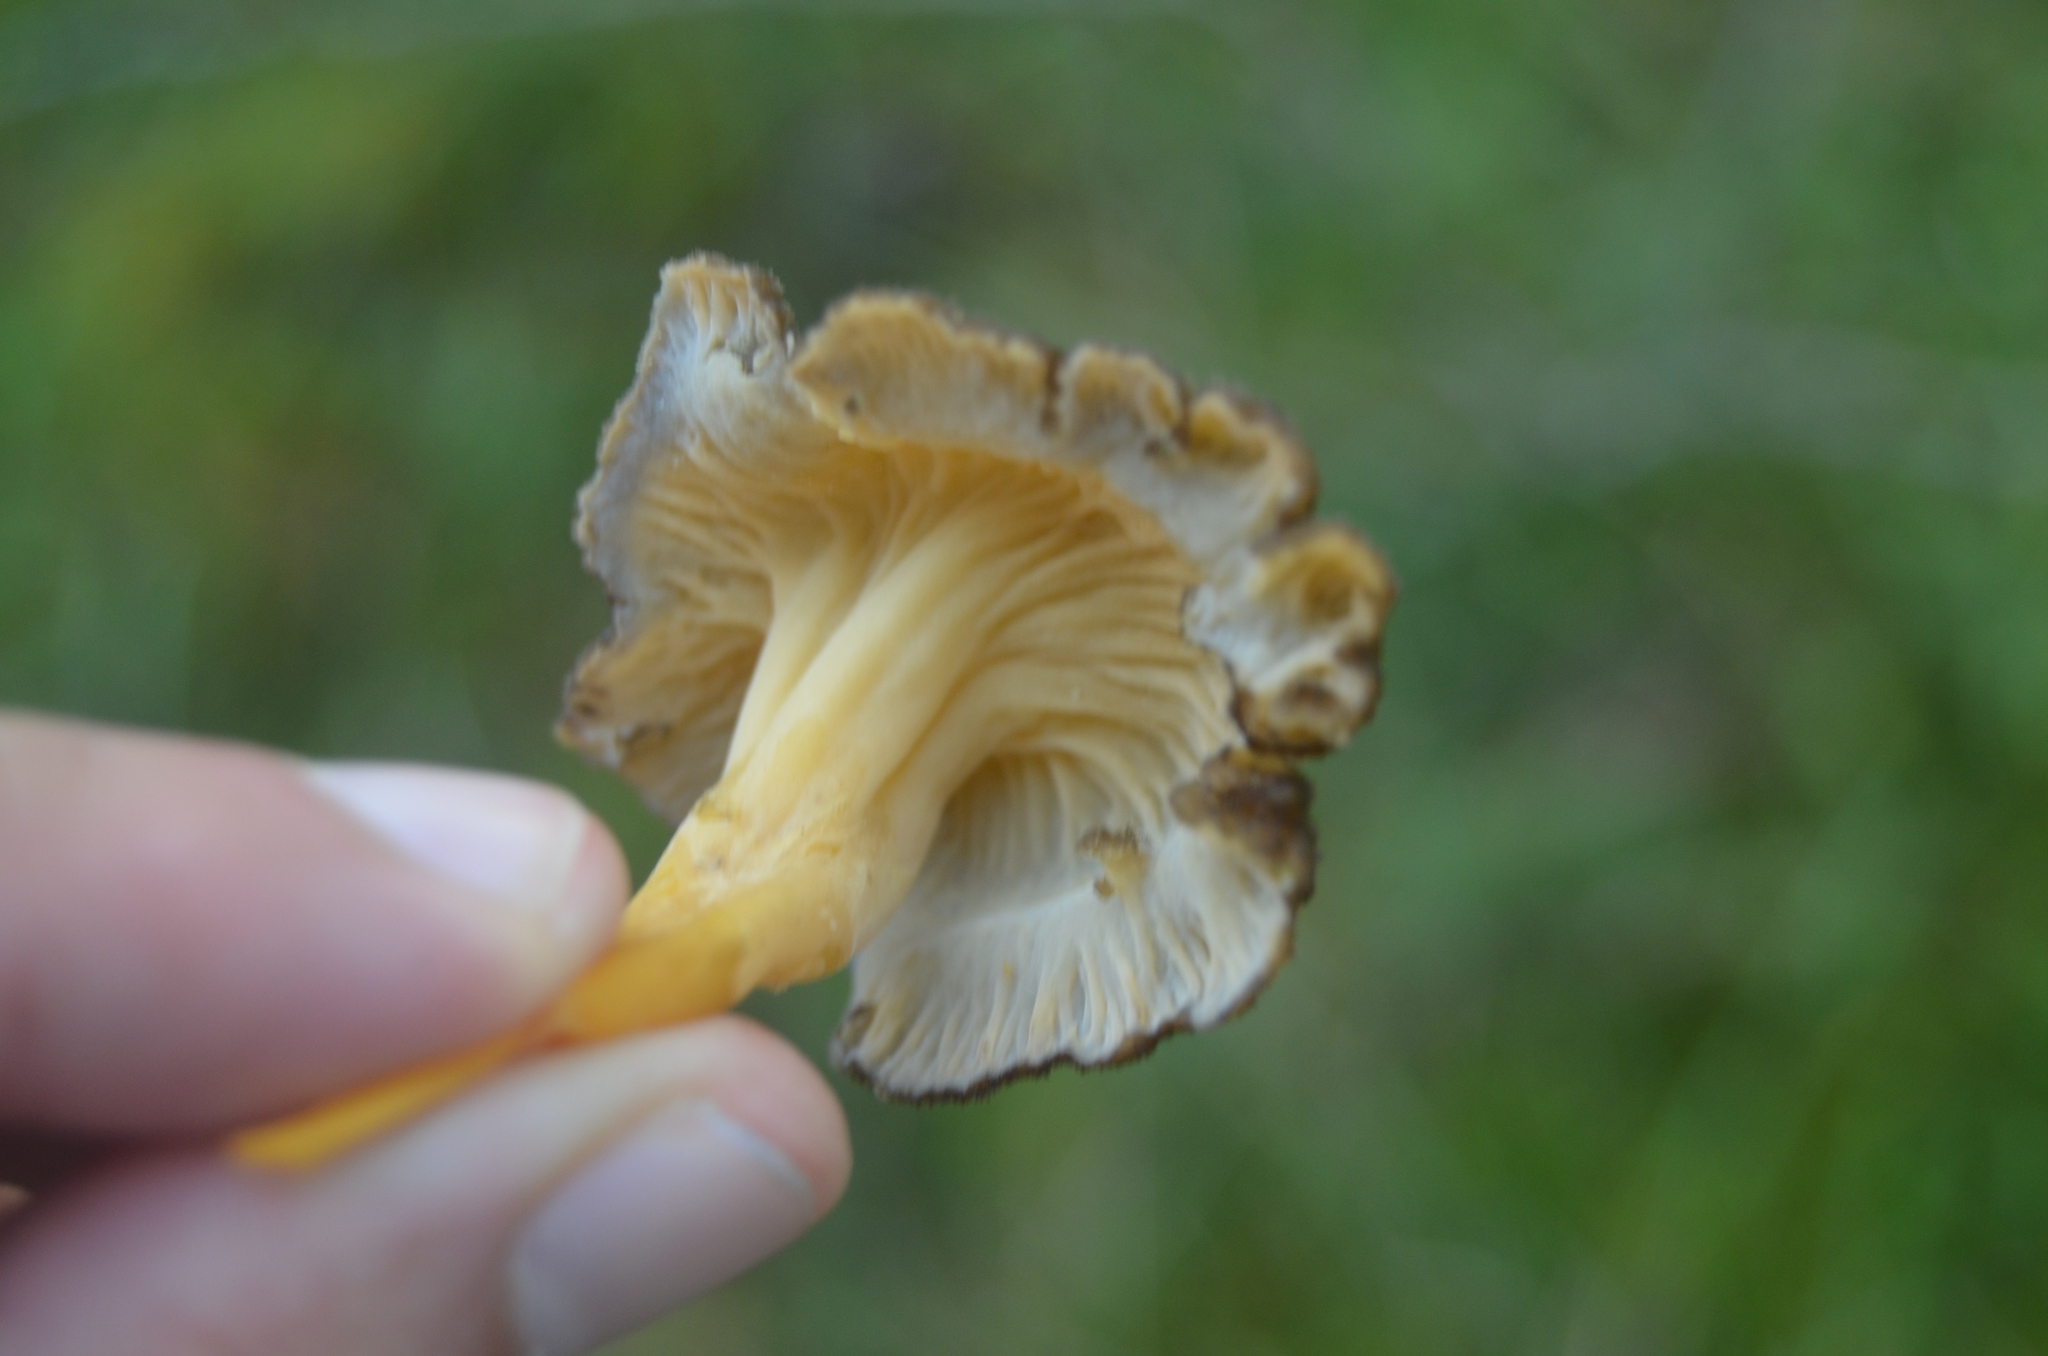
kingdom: Fungi
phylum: Basidiomycota
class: Agaricomycetes
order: Cantharellales
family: Hydnaceae
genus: Craterellus
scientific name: Craterellus lutescens
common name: Golden chanterelle
